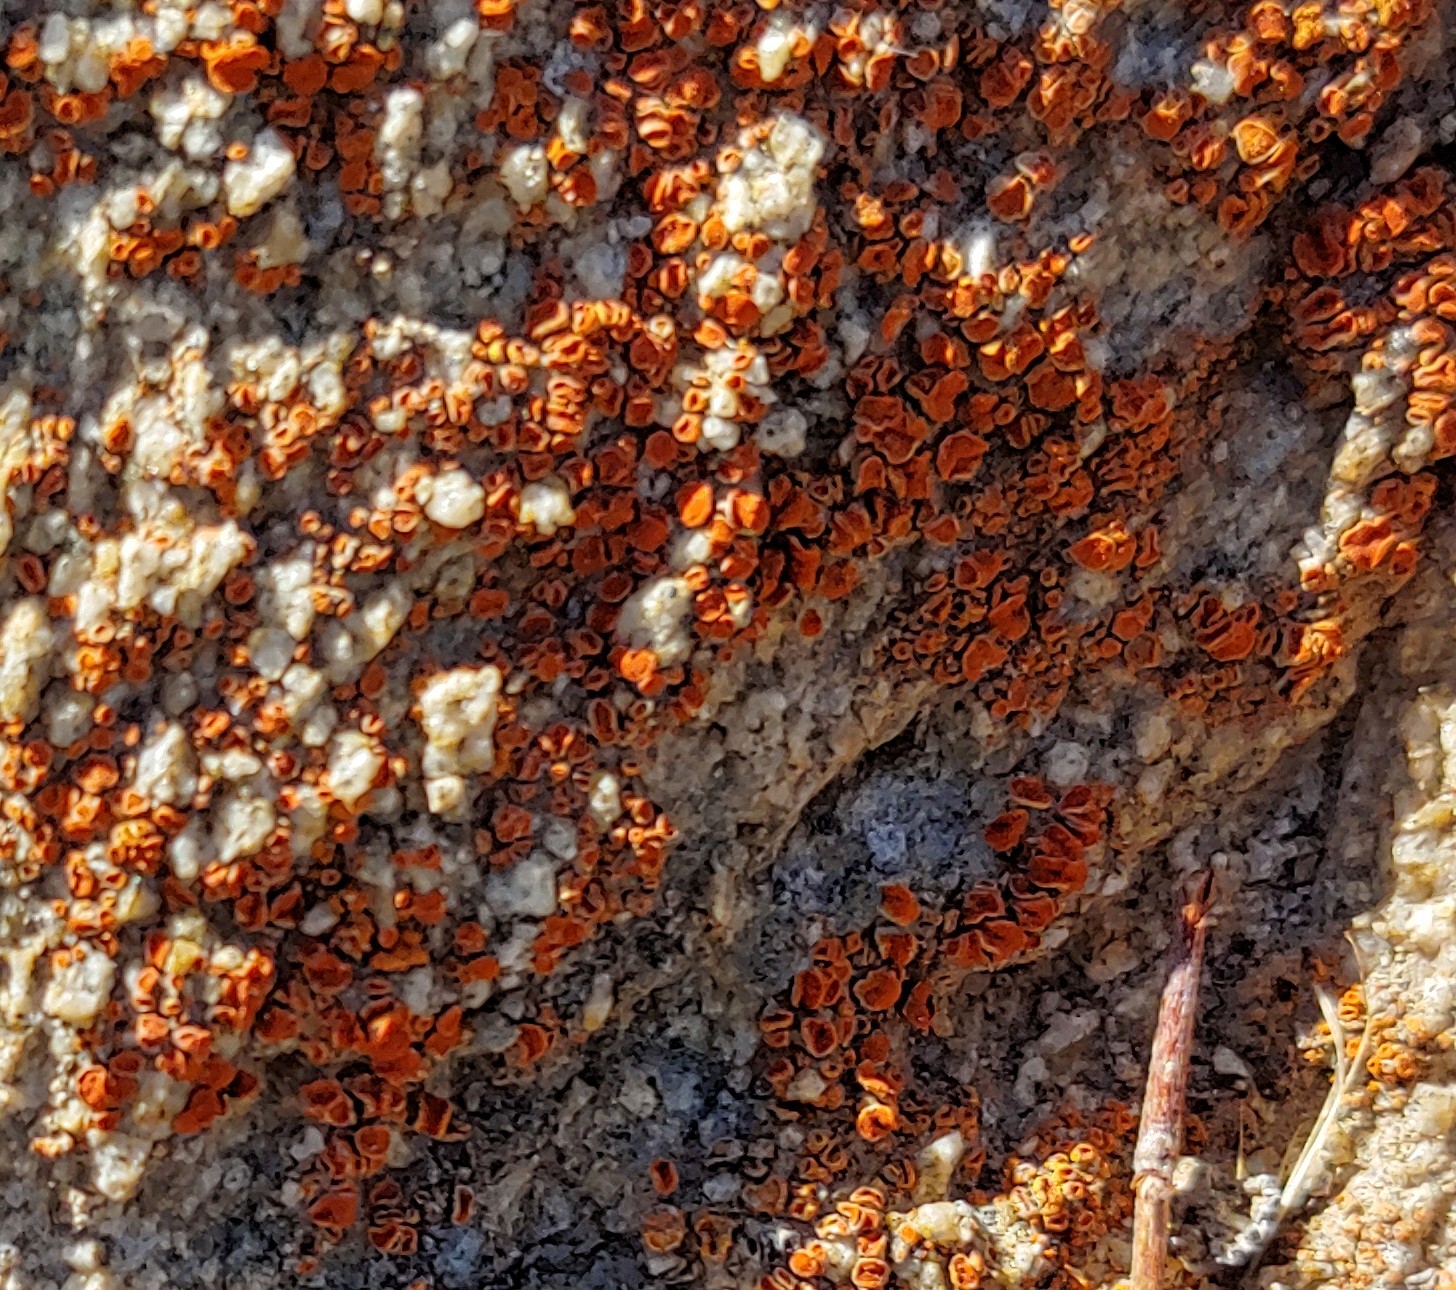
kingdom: Fungi
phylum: Ascomycota
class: Lecanoromycetes
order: Teloschistales
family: Teloschistaceae
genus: Xanthoria
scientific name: Xanthoria elegans
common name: Elegant sunburst lichen
